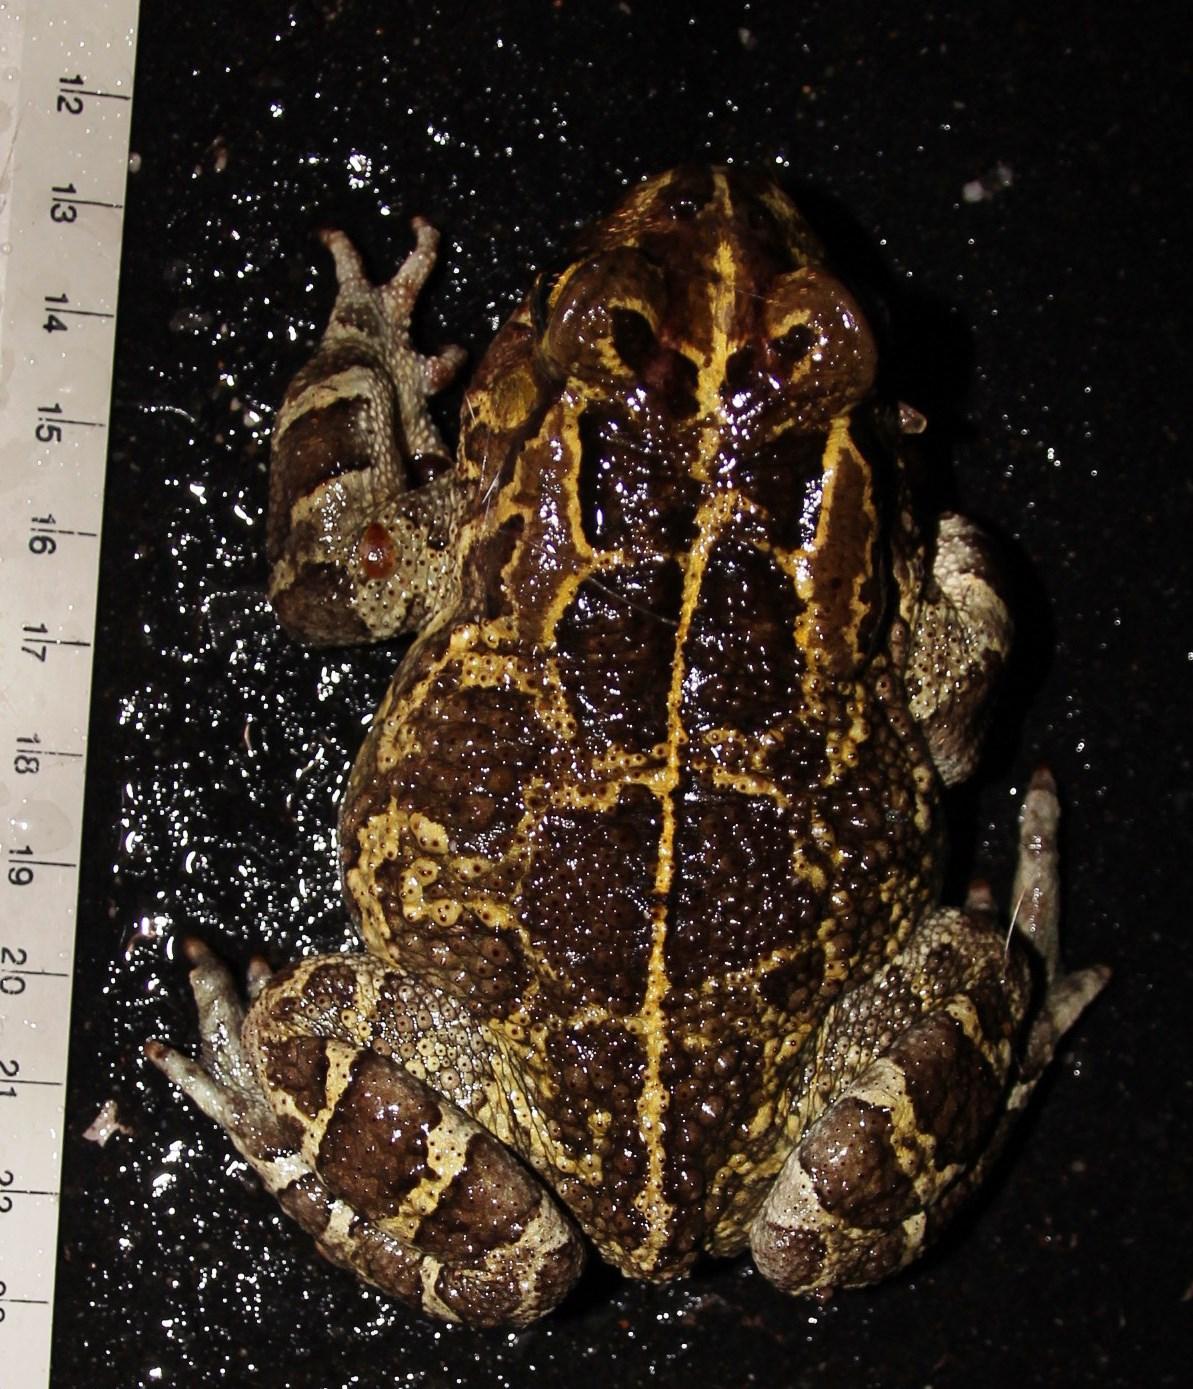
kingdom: Animalia
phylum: Chordata
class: Amphibia
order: Anura
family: Bufonidae
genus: Sclerophrys
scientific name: Sclerophrys pantherina
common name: Panther toad
